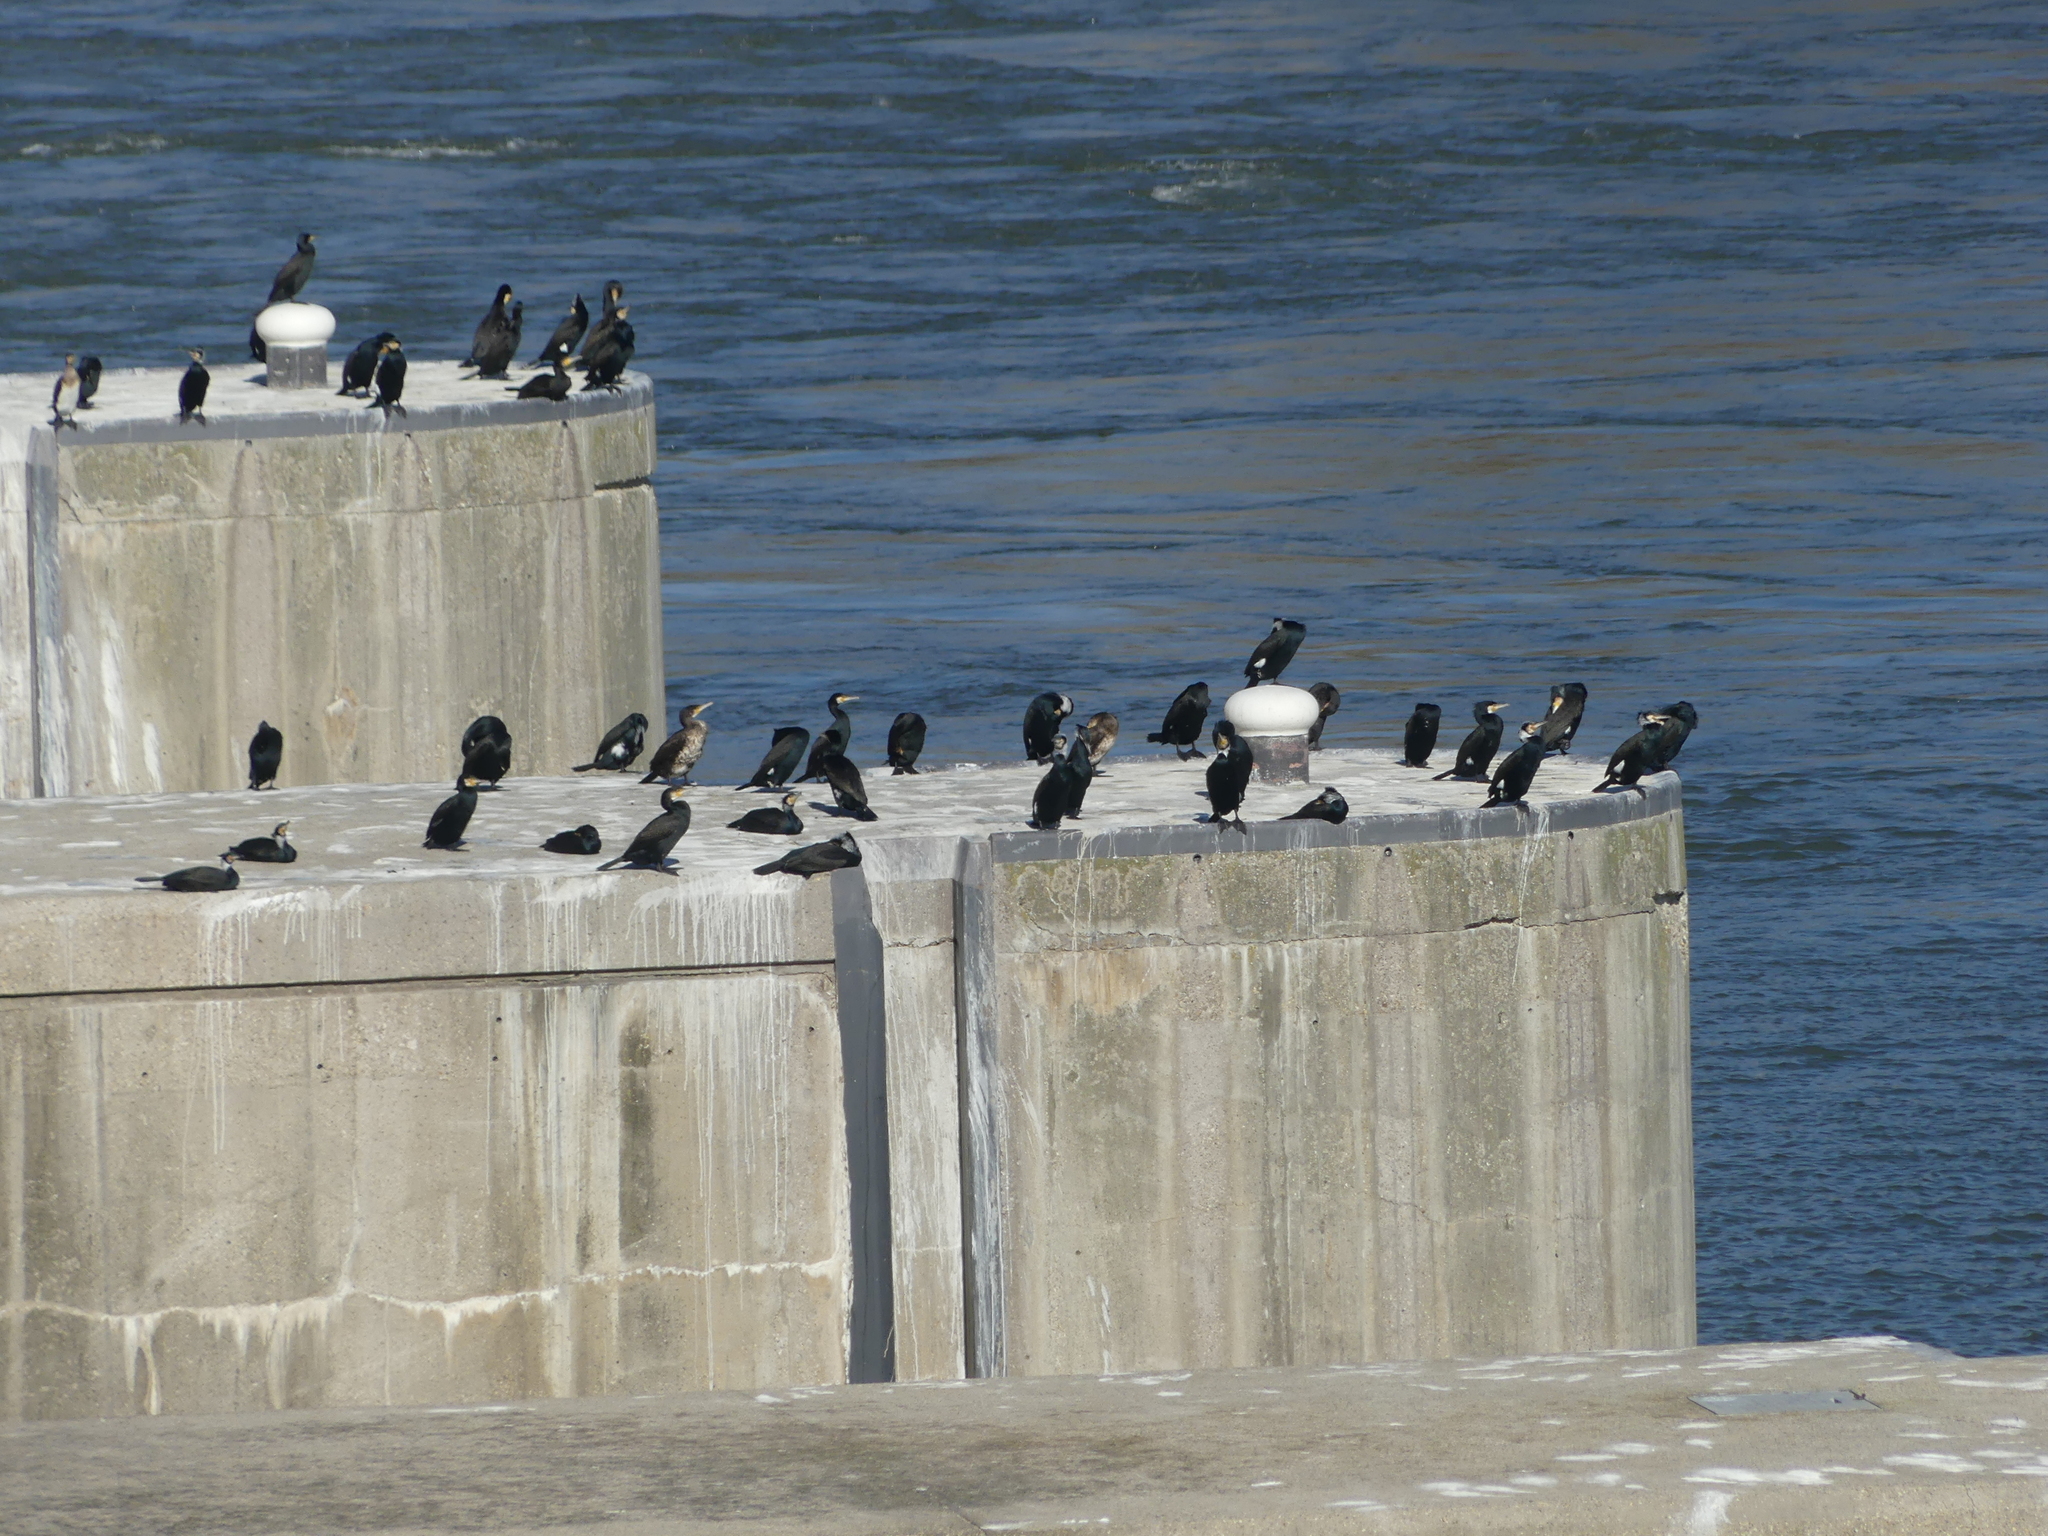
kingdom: Animalia
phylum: Chordata
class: Aves
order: Suliformes
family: Phalacrocoracidae
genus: Phalacrocorax
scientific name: Phalacrocorax carbo
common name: Great cormorant
